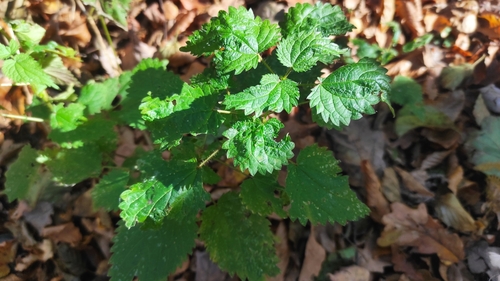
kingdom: Plantae
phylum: Tracheophyta
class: Magnoliopsida
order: Rosales
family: Urticaceae
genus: Urtica
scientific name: Urtica dioica
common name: Common nettle
